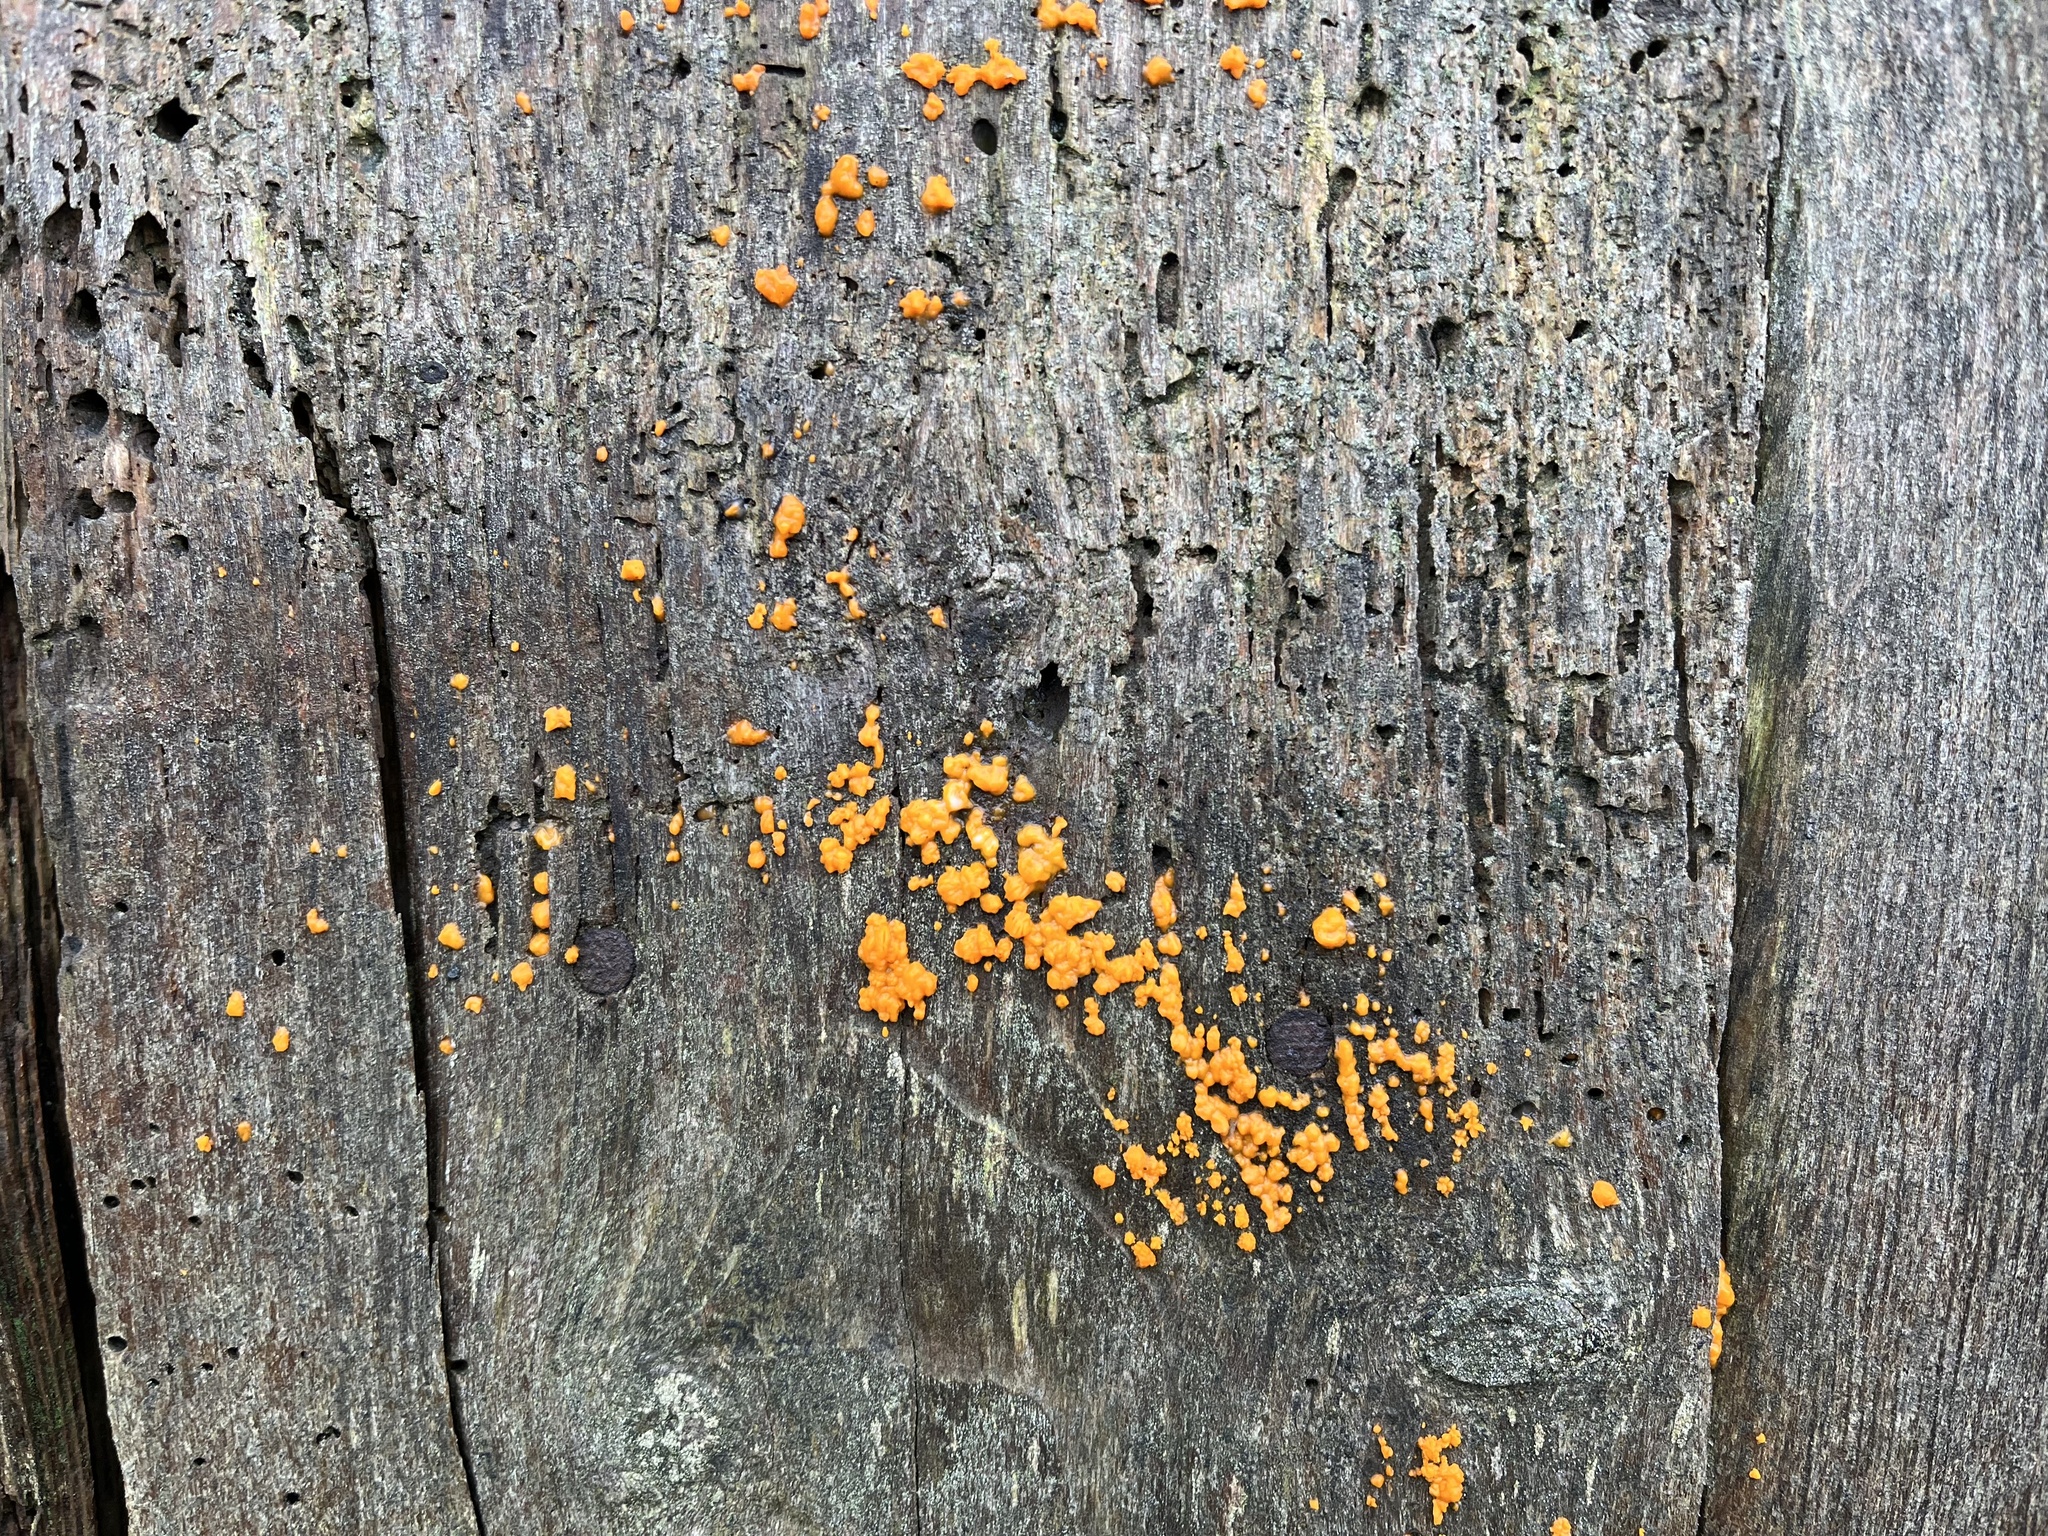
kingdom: Fungi
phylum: Basidiomycota
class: Dacrymycetes
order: Dacrymycetales
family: Dacrymycetaceae
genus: Dacrymyces
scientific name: Dacrymyces stillatus
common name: Common jelly spot
